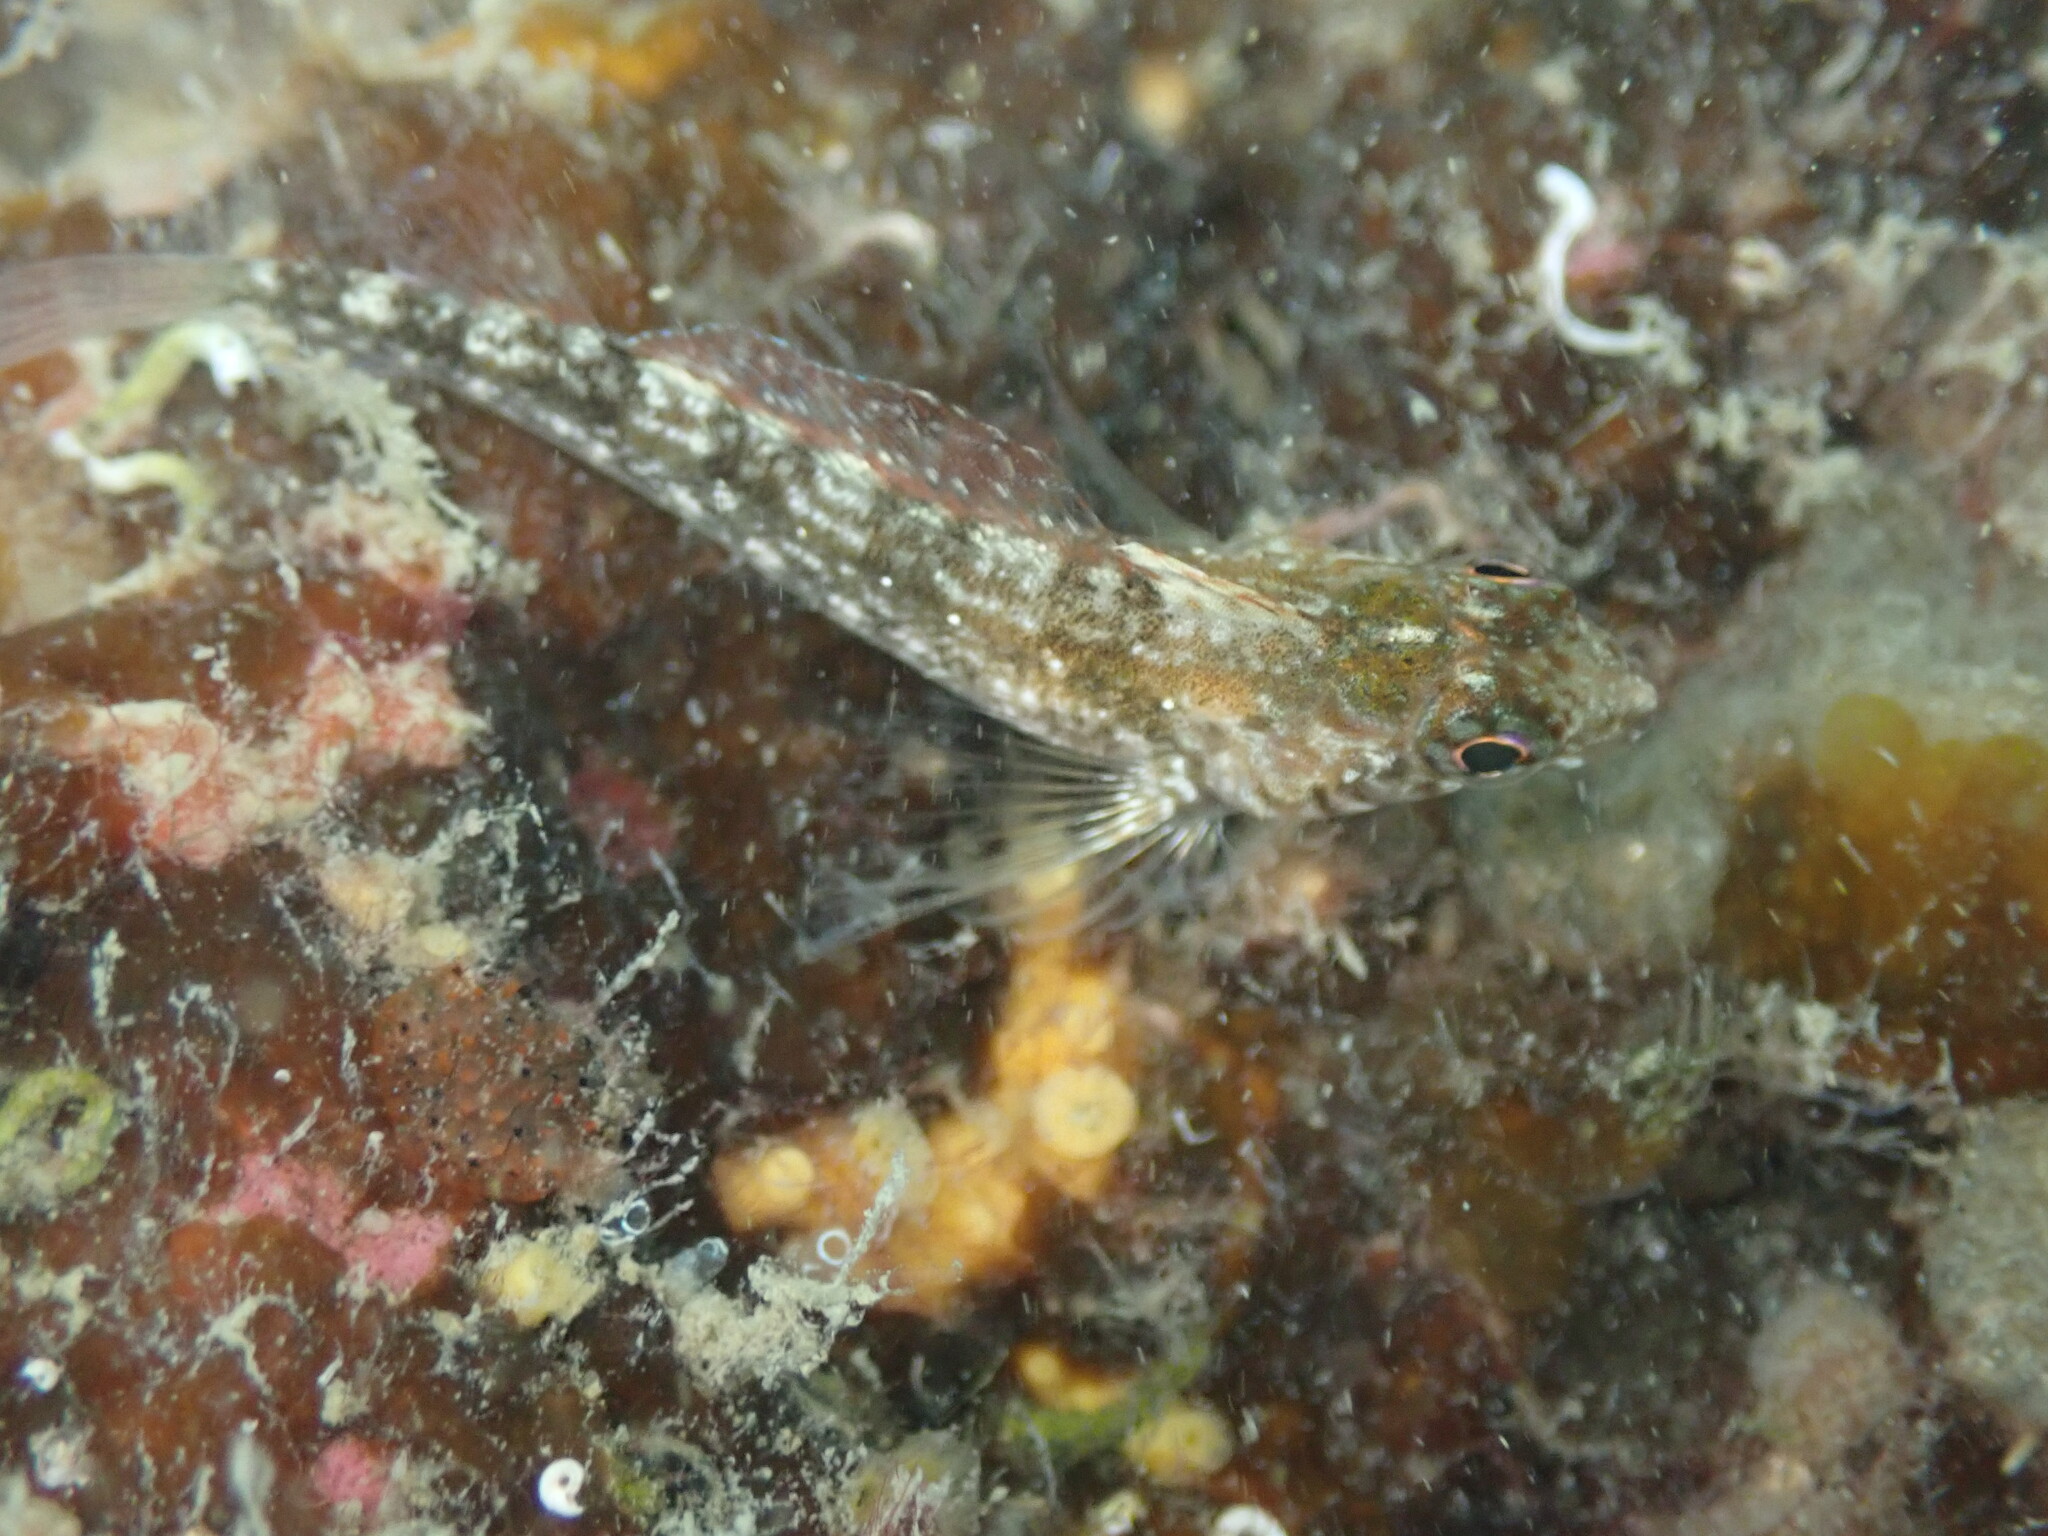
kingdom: Animalia
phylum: Chordata
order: Perciformes
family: Tripterygiidae
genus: Forsterygion
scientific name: Forsterygion lapillum
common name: Common triplefin
